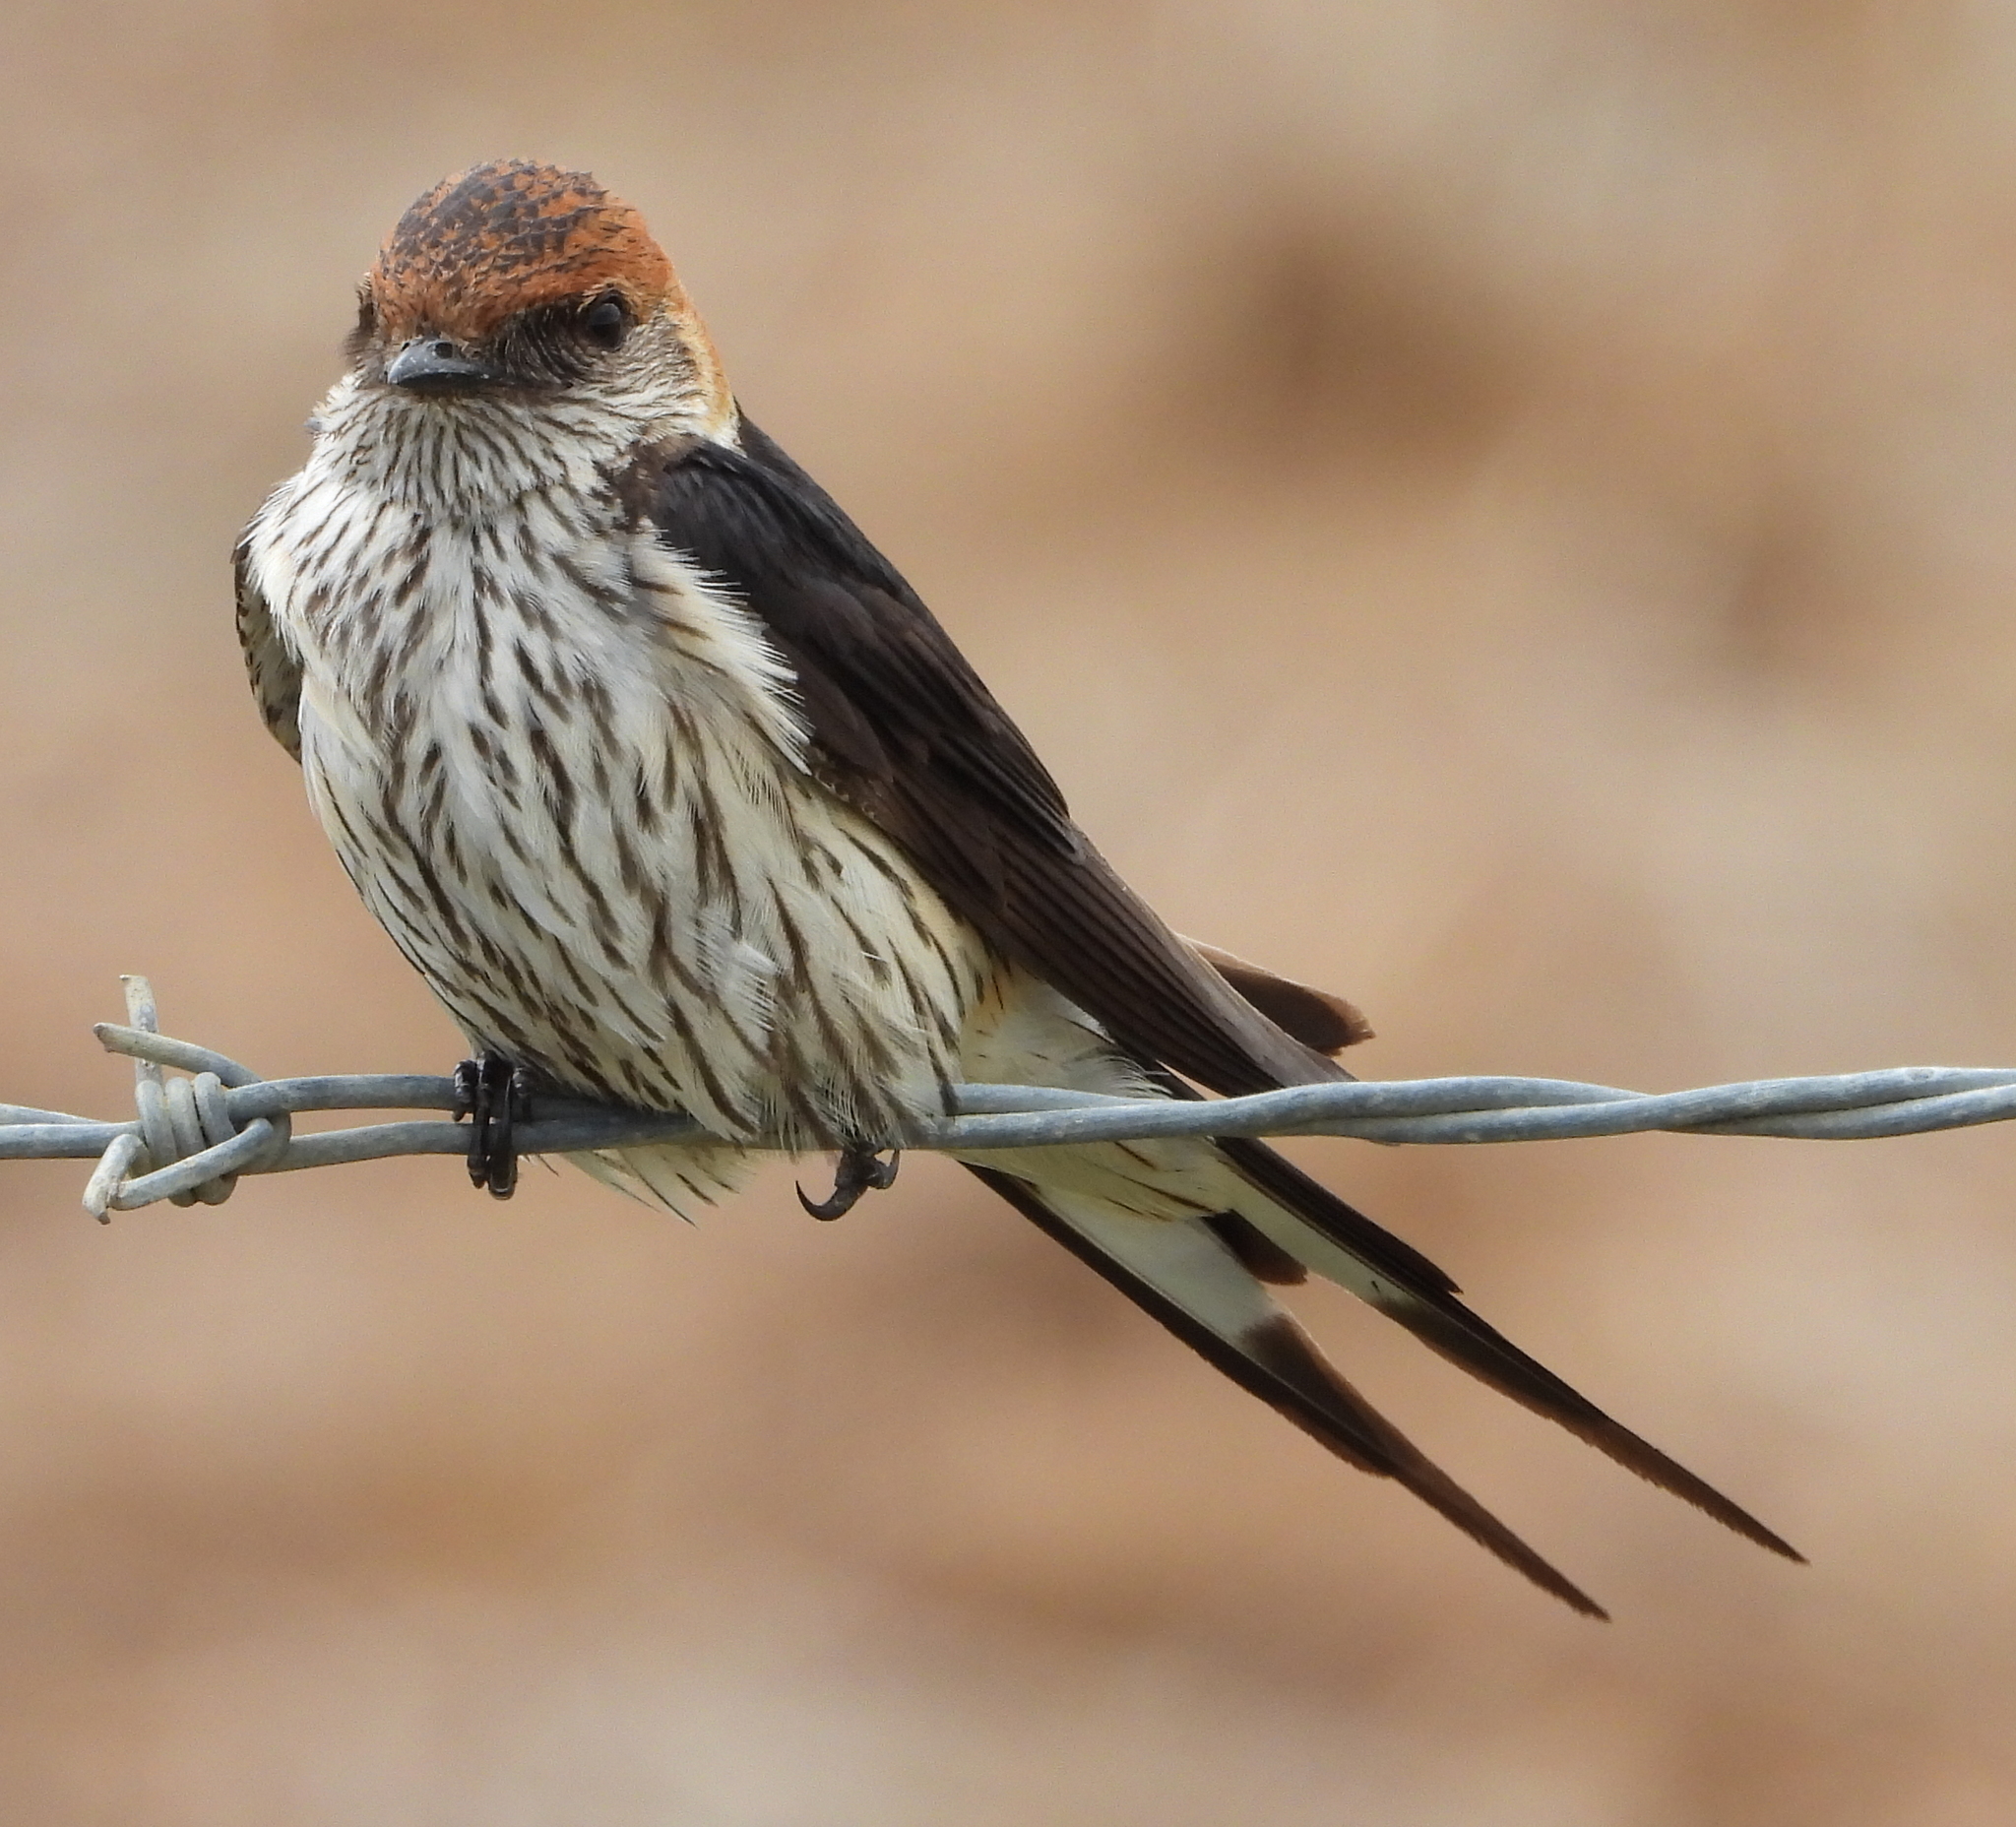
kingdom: Animalia
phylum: Chordata
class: Aves
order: Passeriformes
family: Hirundinidae
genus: Cecropis
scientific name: Cecropis cucullata
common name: Greater striped-swallow
